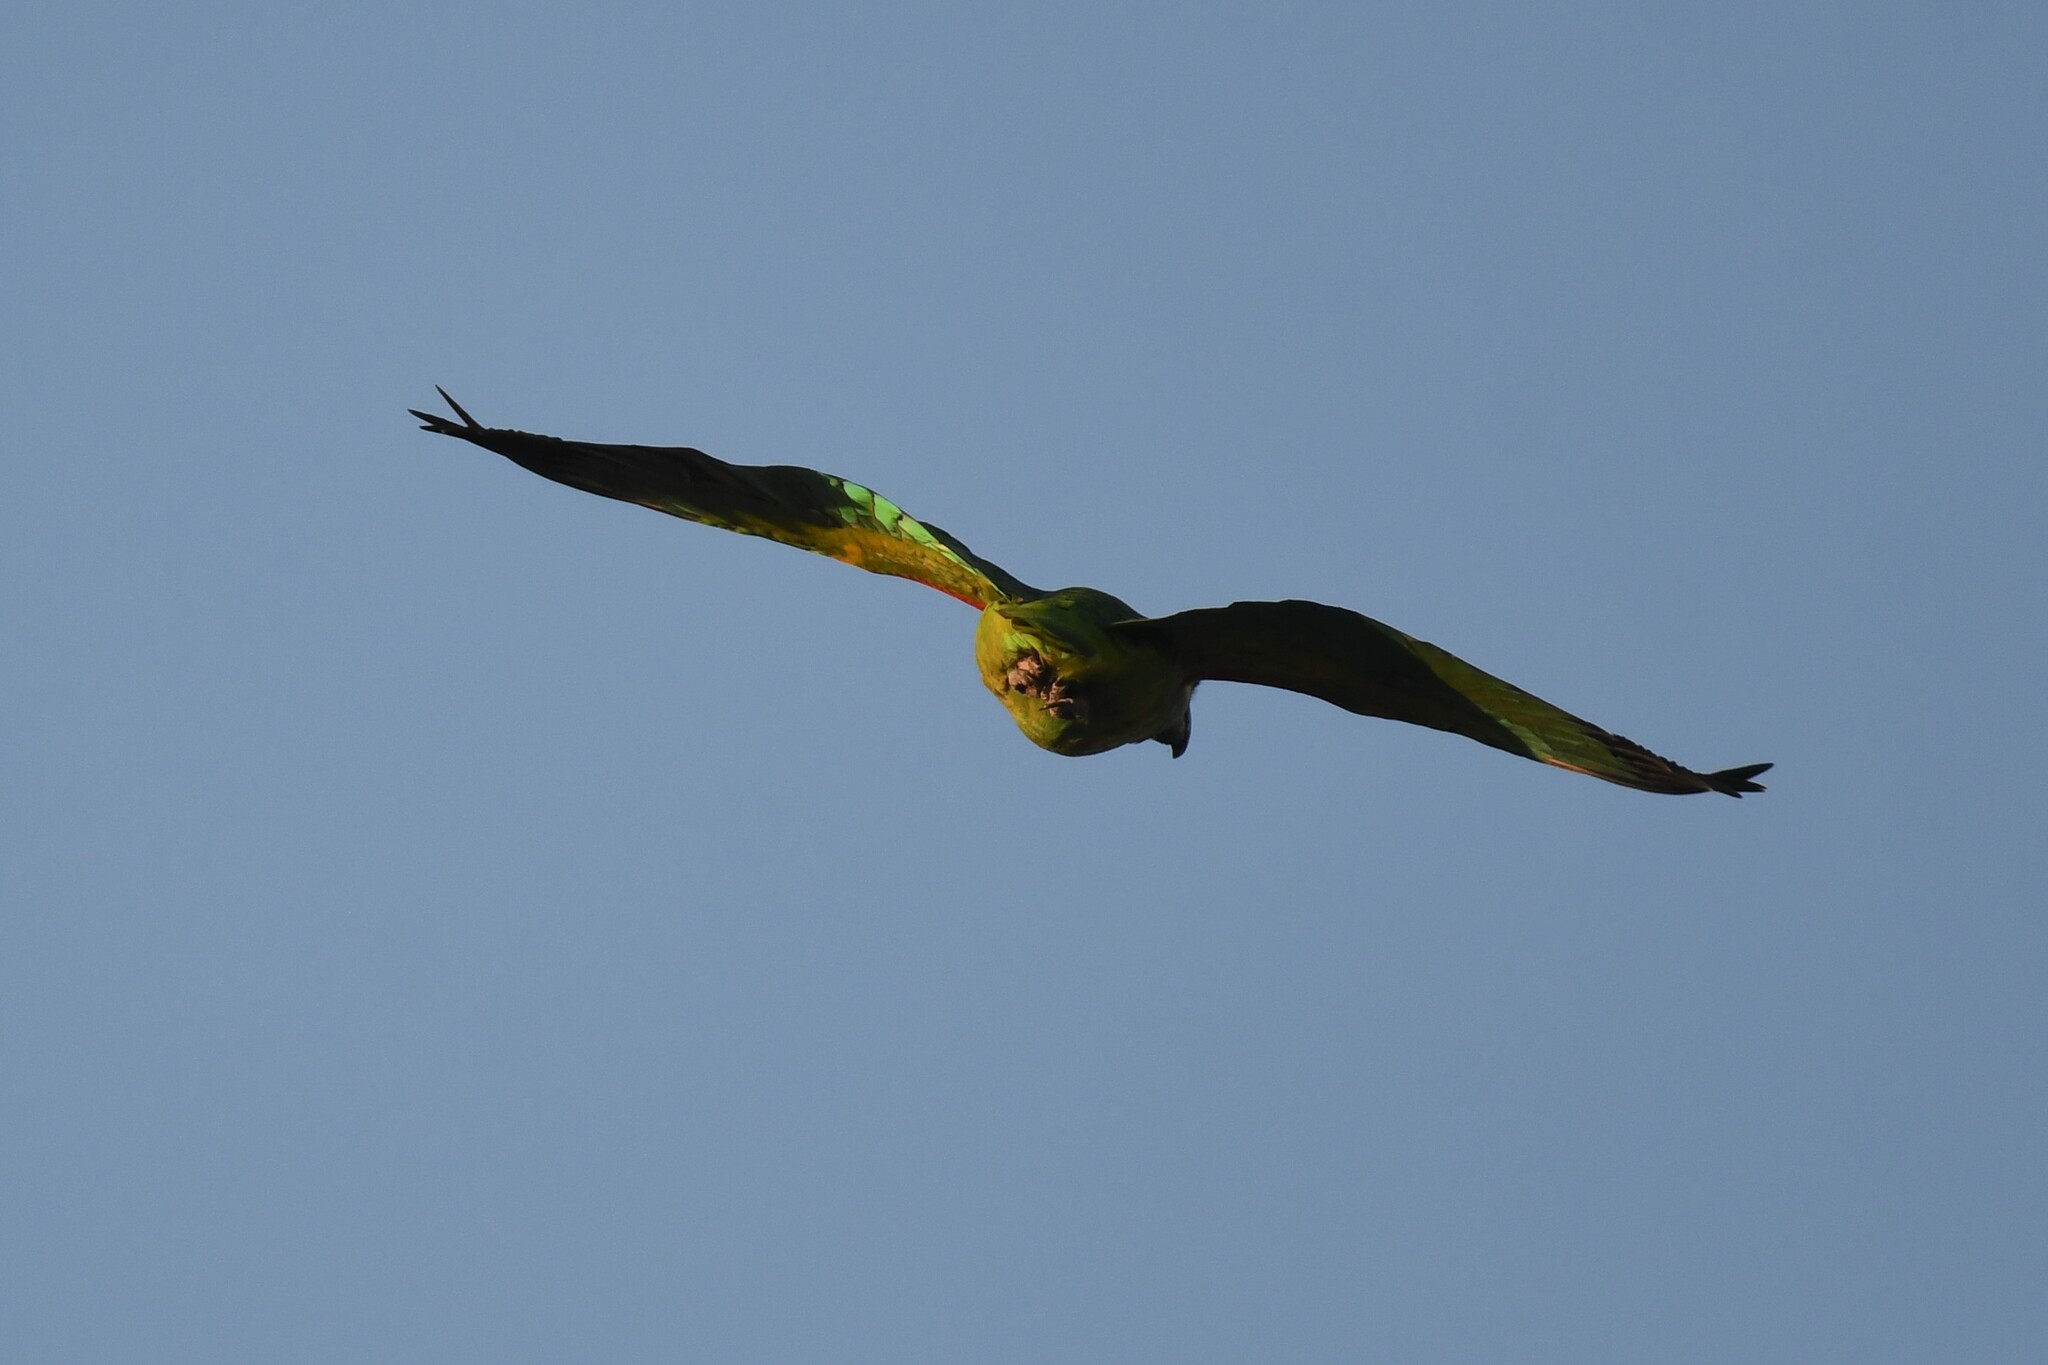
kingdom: Animalia
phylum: Chordata
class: Aves
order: Psittaciformes
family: Psittacidae
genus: Amazona
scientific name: Amazona aestiva
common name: Turquoise-fronted amazon
